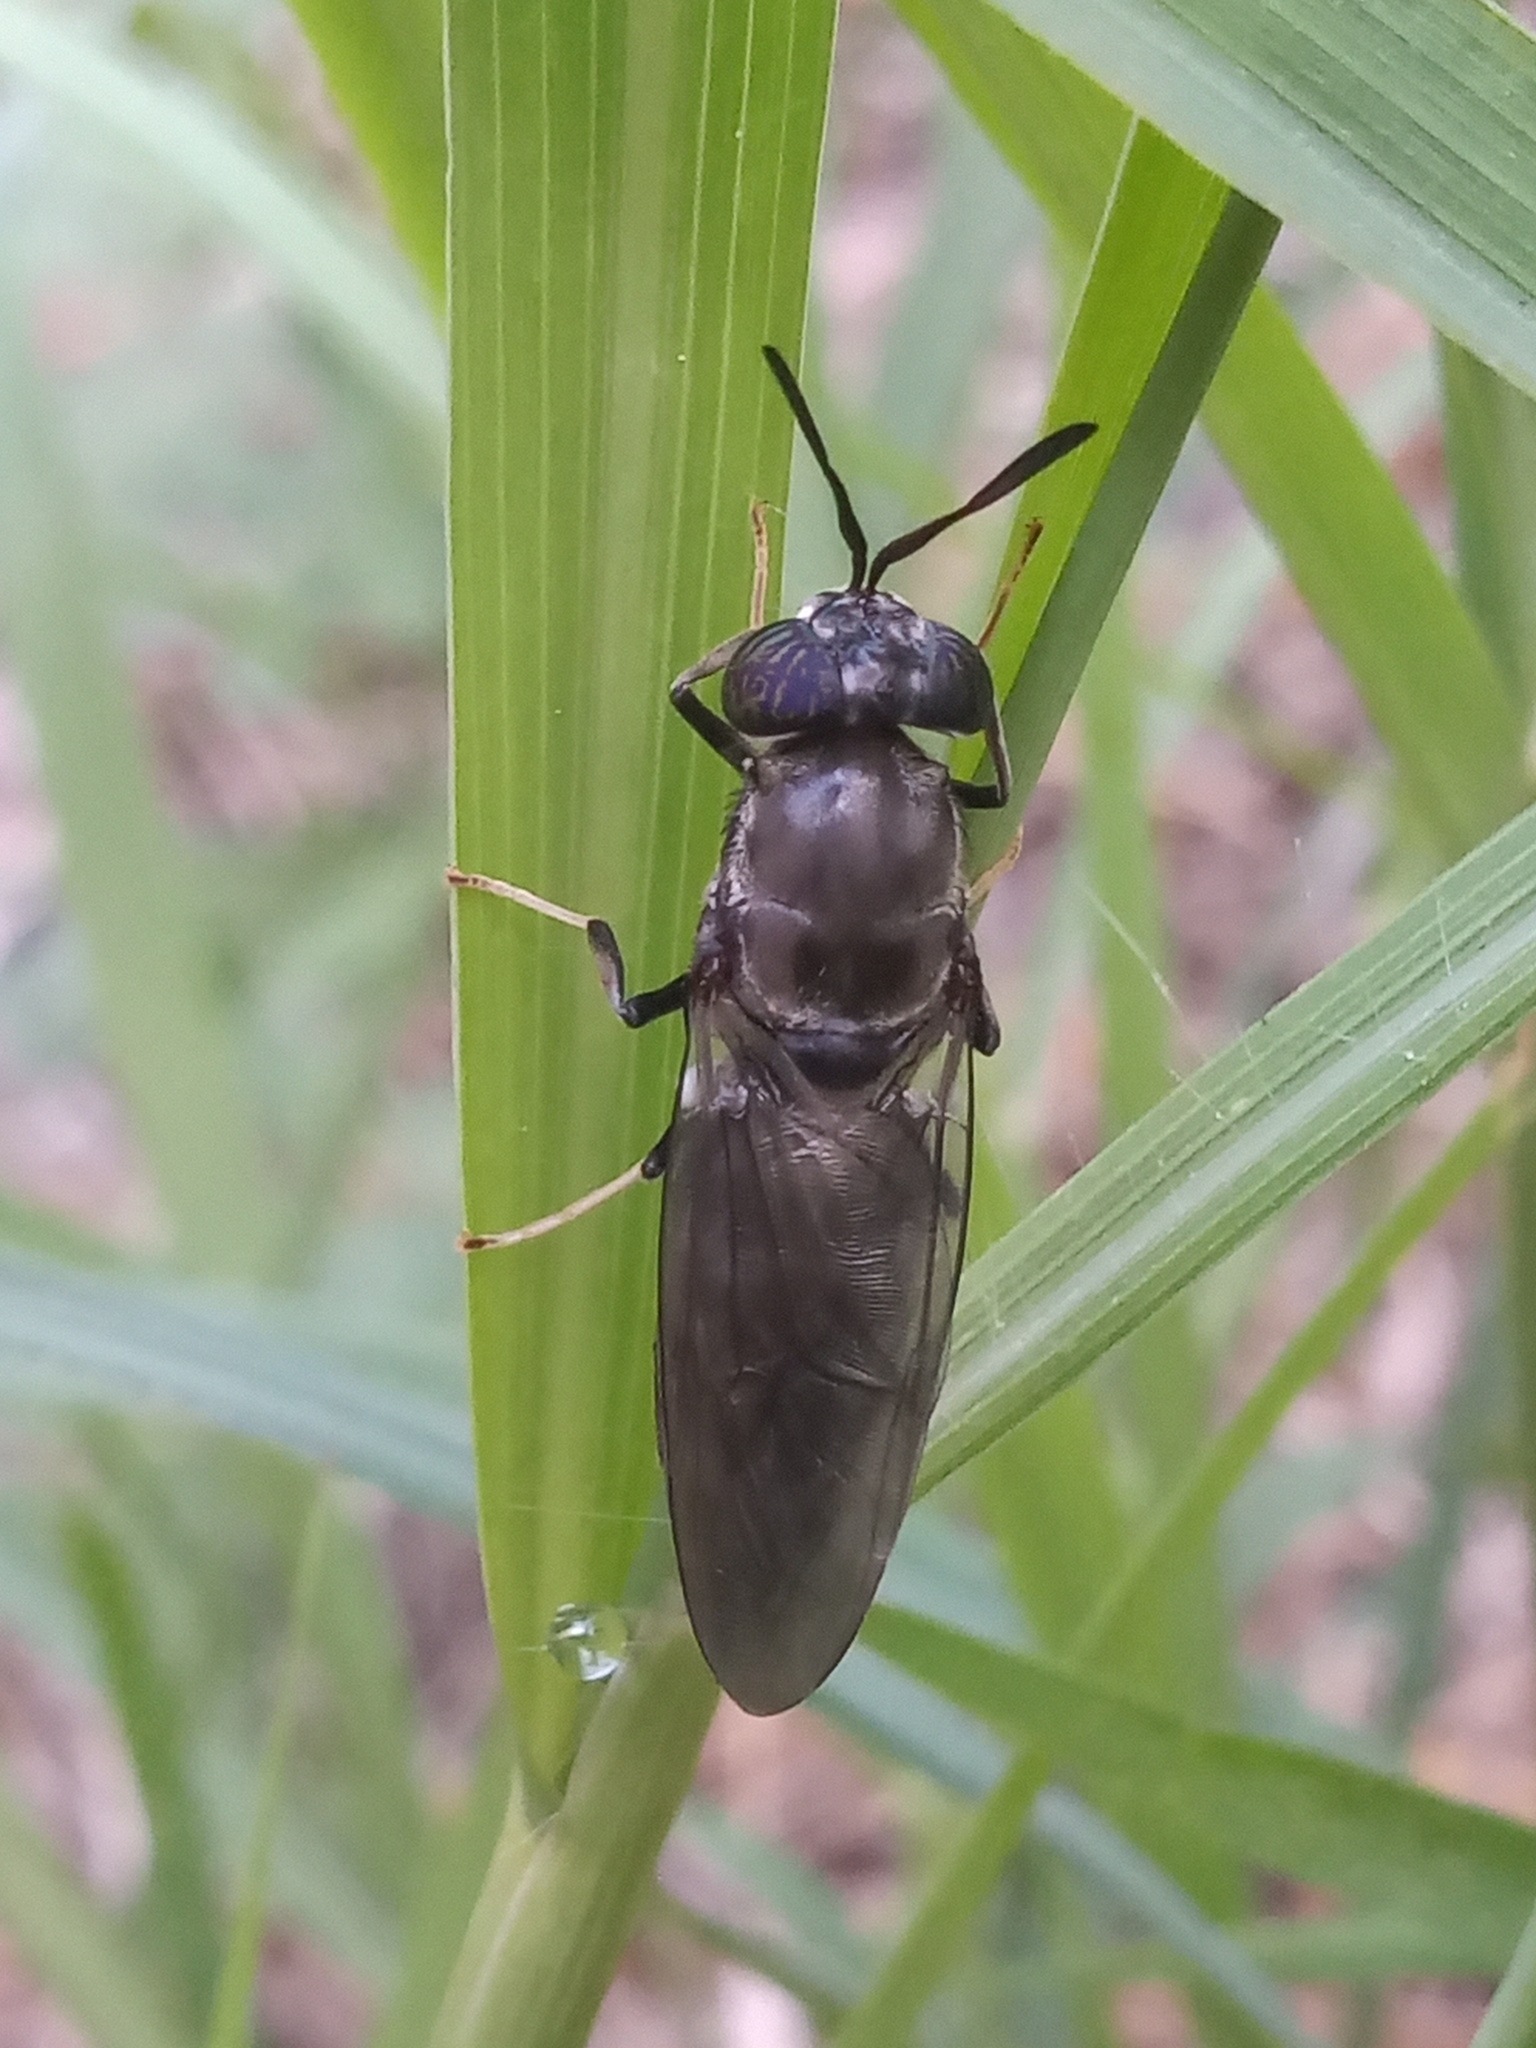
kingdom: Animalia
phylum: Arthropoda
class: Insecta
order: Diptera
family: Stratiomyidae
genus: Hermetia
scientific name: Hermetia illucens
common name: Black soldier fly
